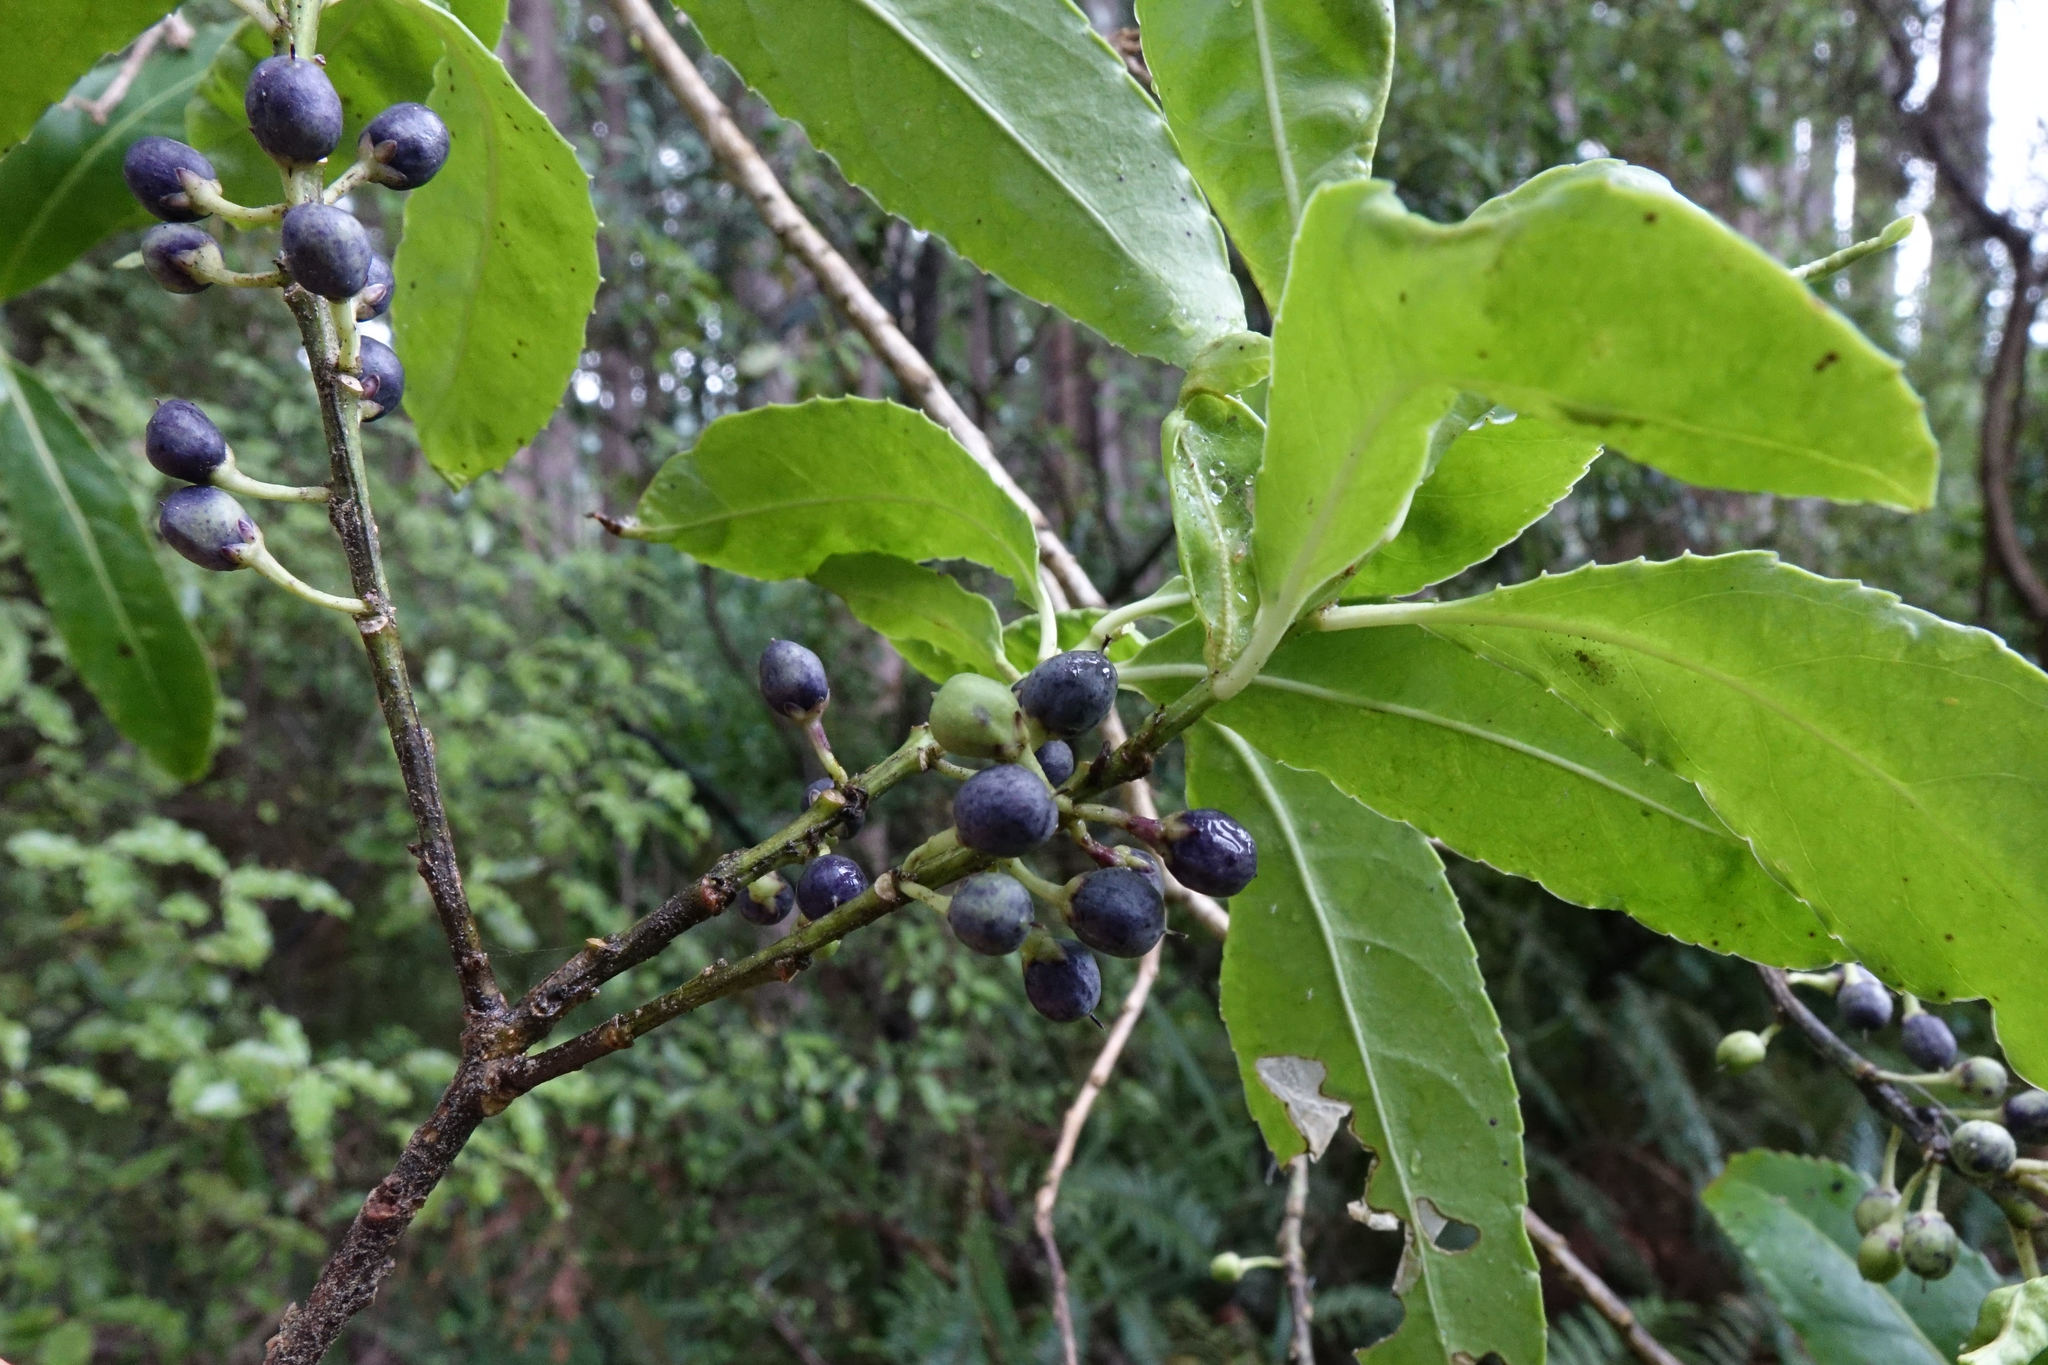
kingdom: Plantae
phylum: Tracheophyta
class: Magnoliopsida
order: Malpighiales
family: Violaceae
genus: Melicytus
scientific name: Melicytus lanceolatus
